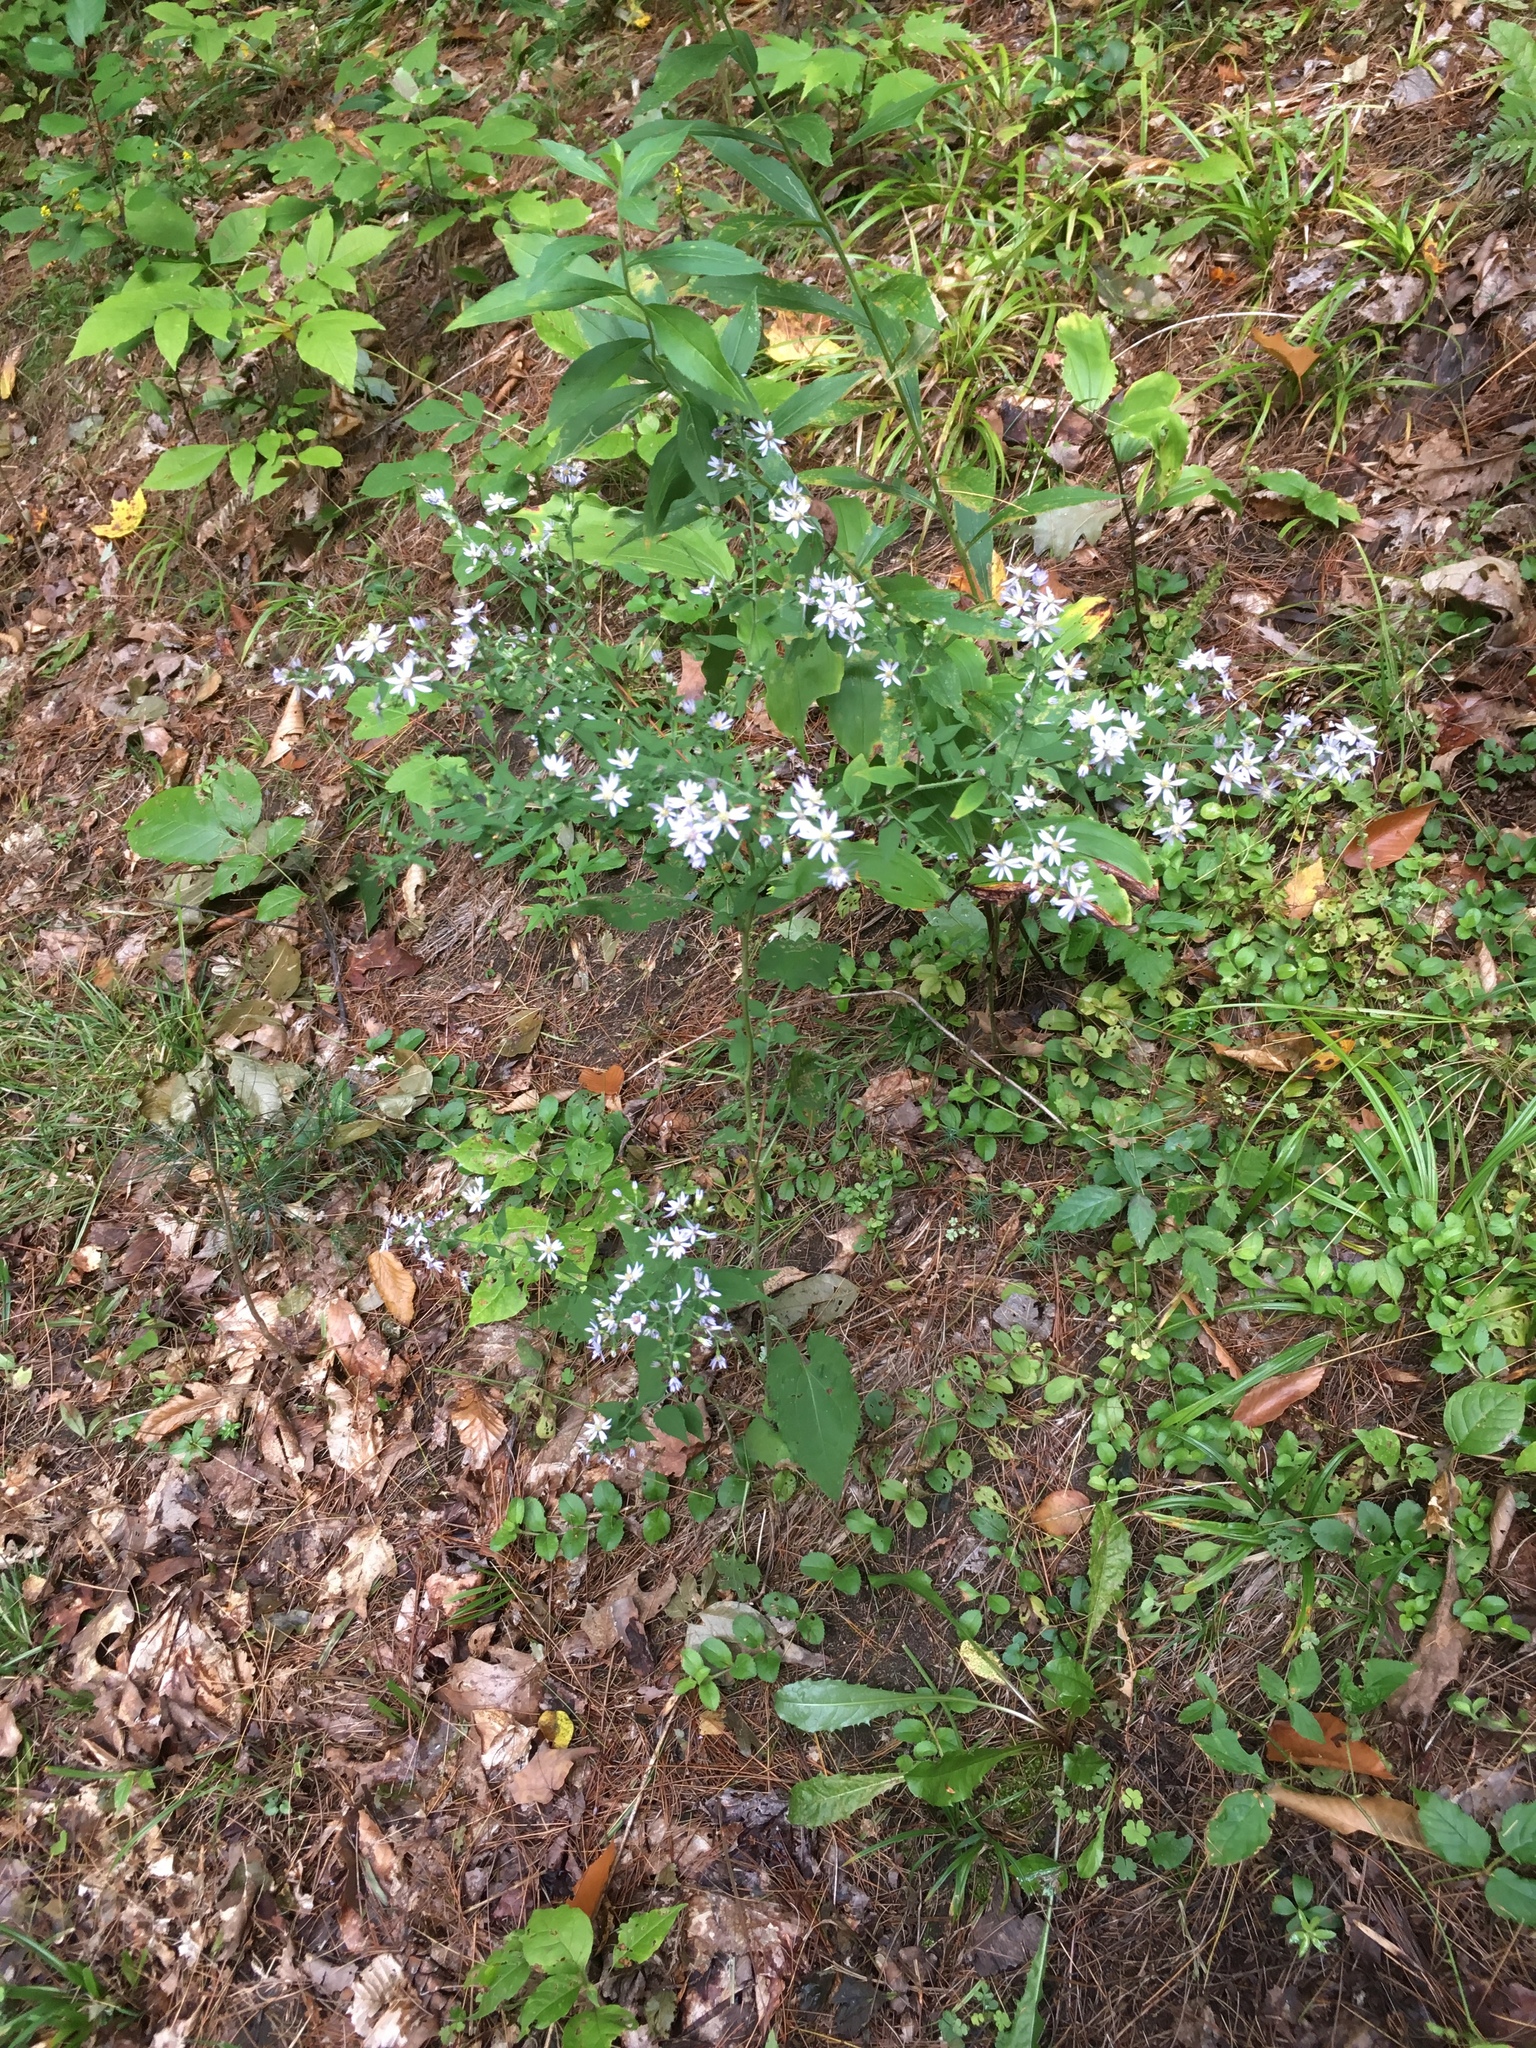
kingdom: Plantae
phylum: Tracheophyta
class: Magnoliopsida
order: Asterales
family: Asteraceae
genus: Symphyotrichum
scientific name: Symphyotrichum cordifolium
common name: Beeweed
